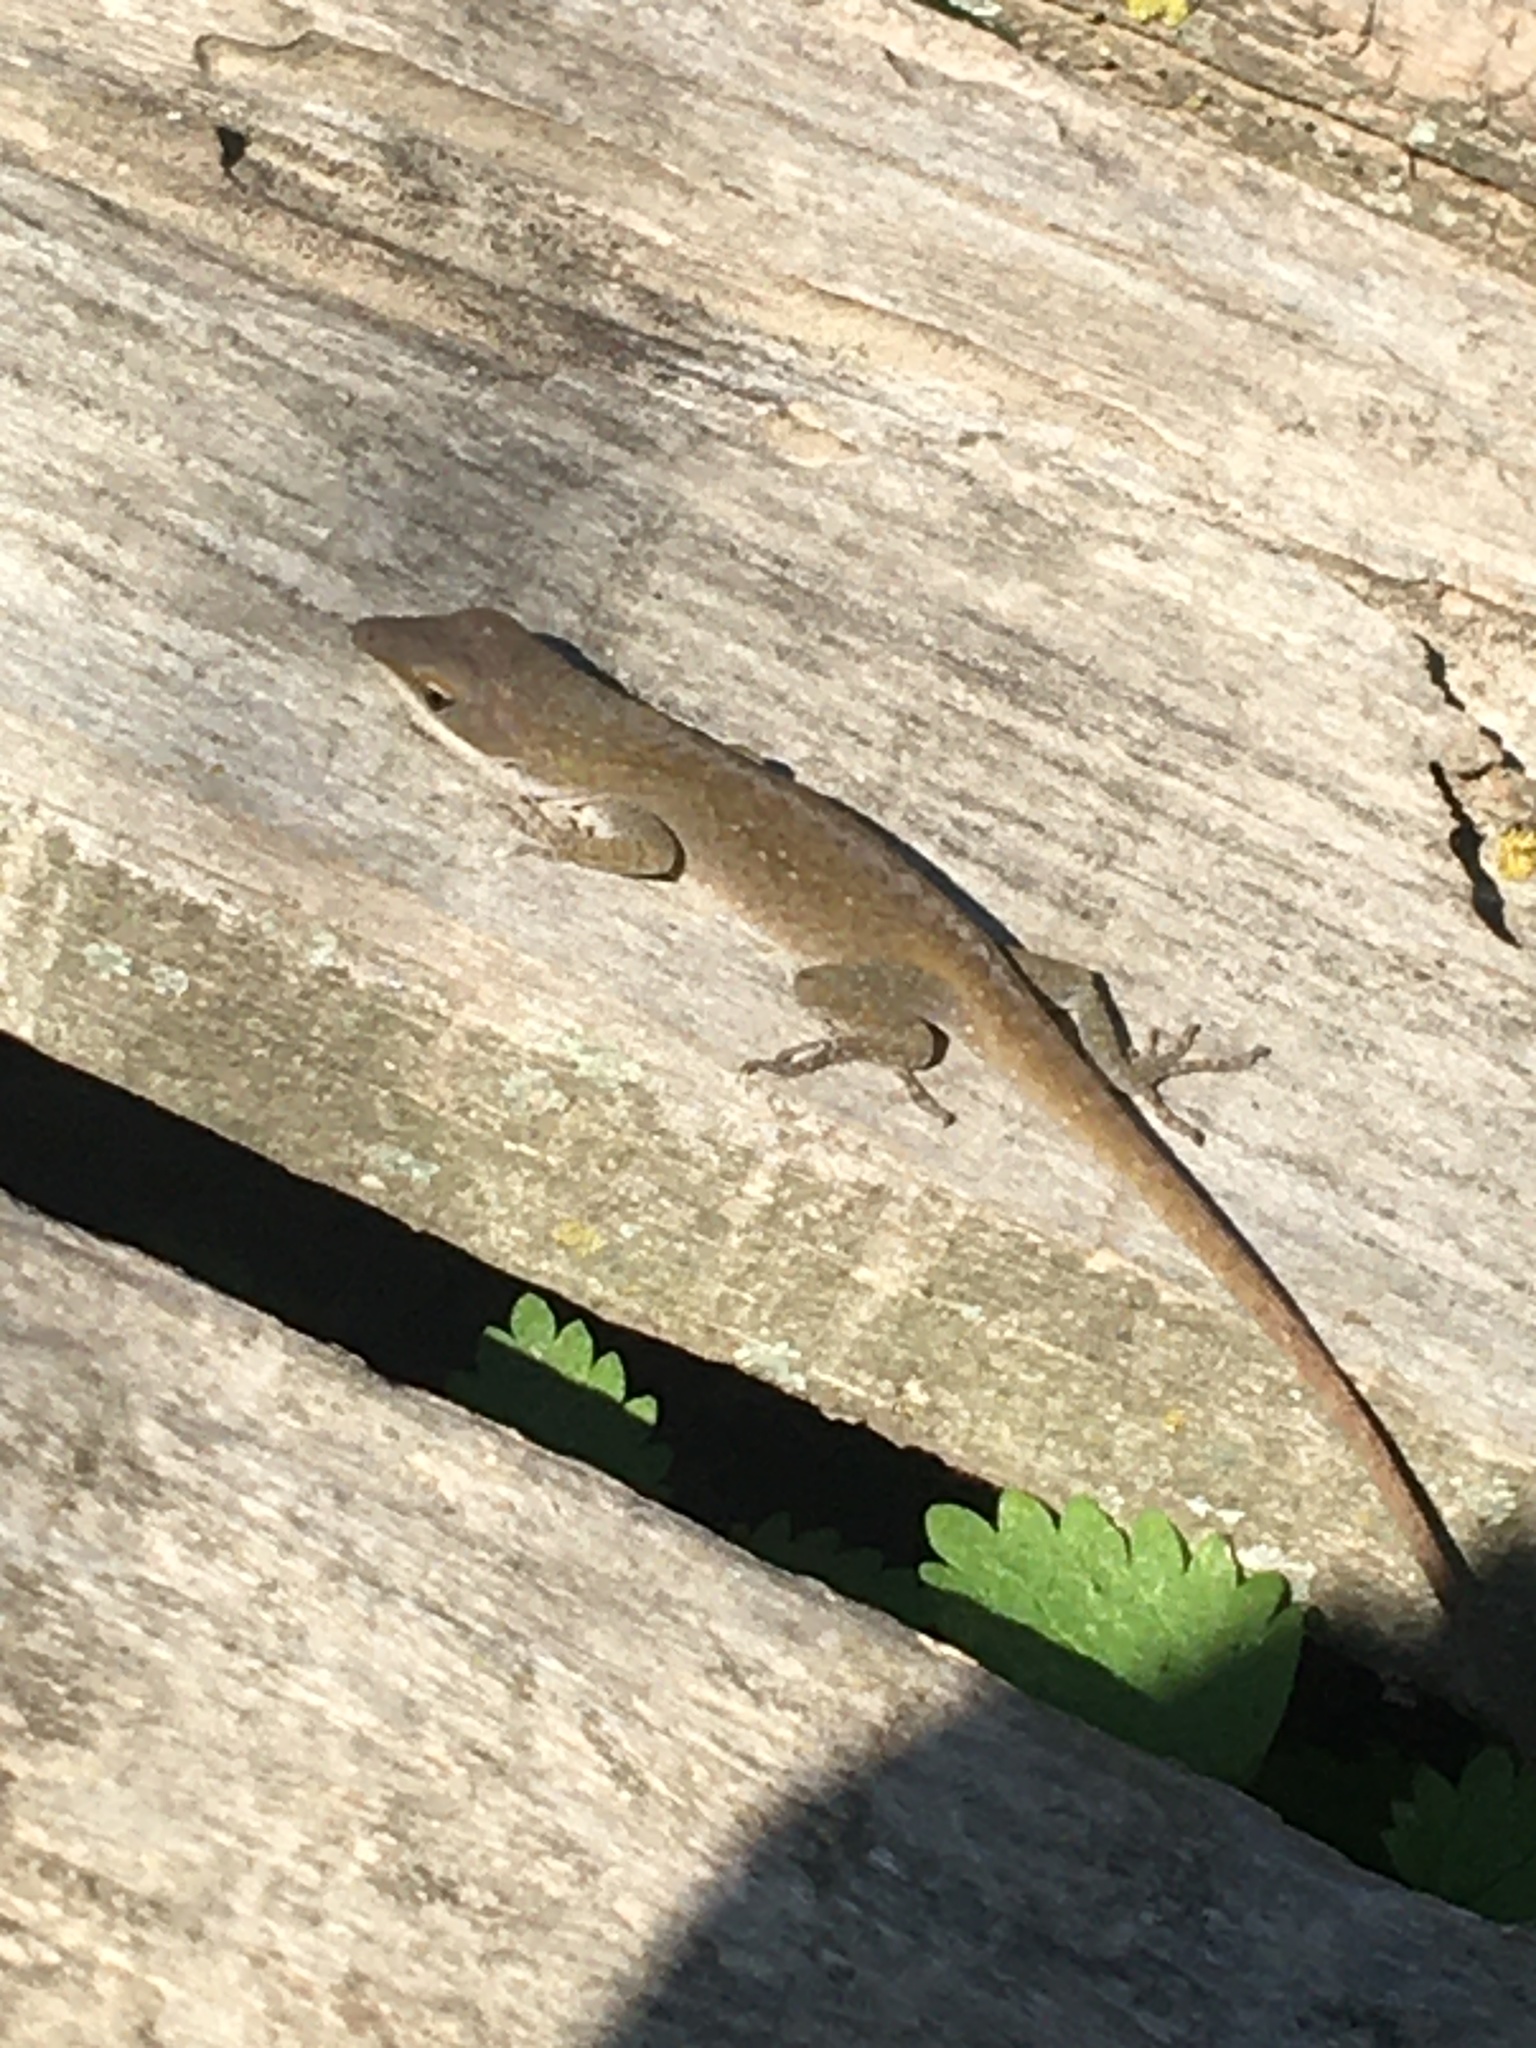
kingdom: Animalia
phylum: Chordata
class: Squamata
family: Dactyloidae
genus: Anolis
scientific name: Anolis carolinensis
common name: Green anole
